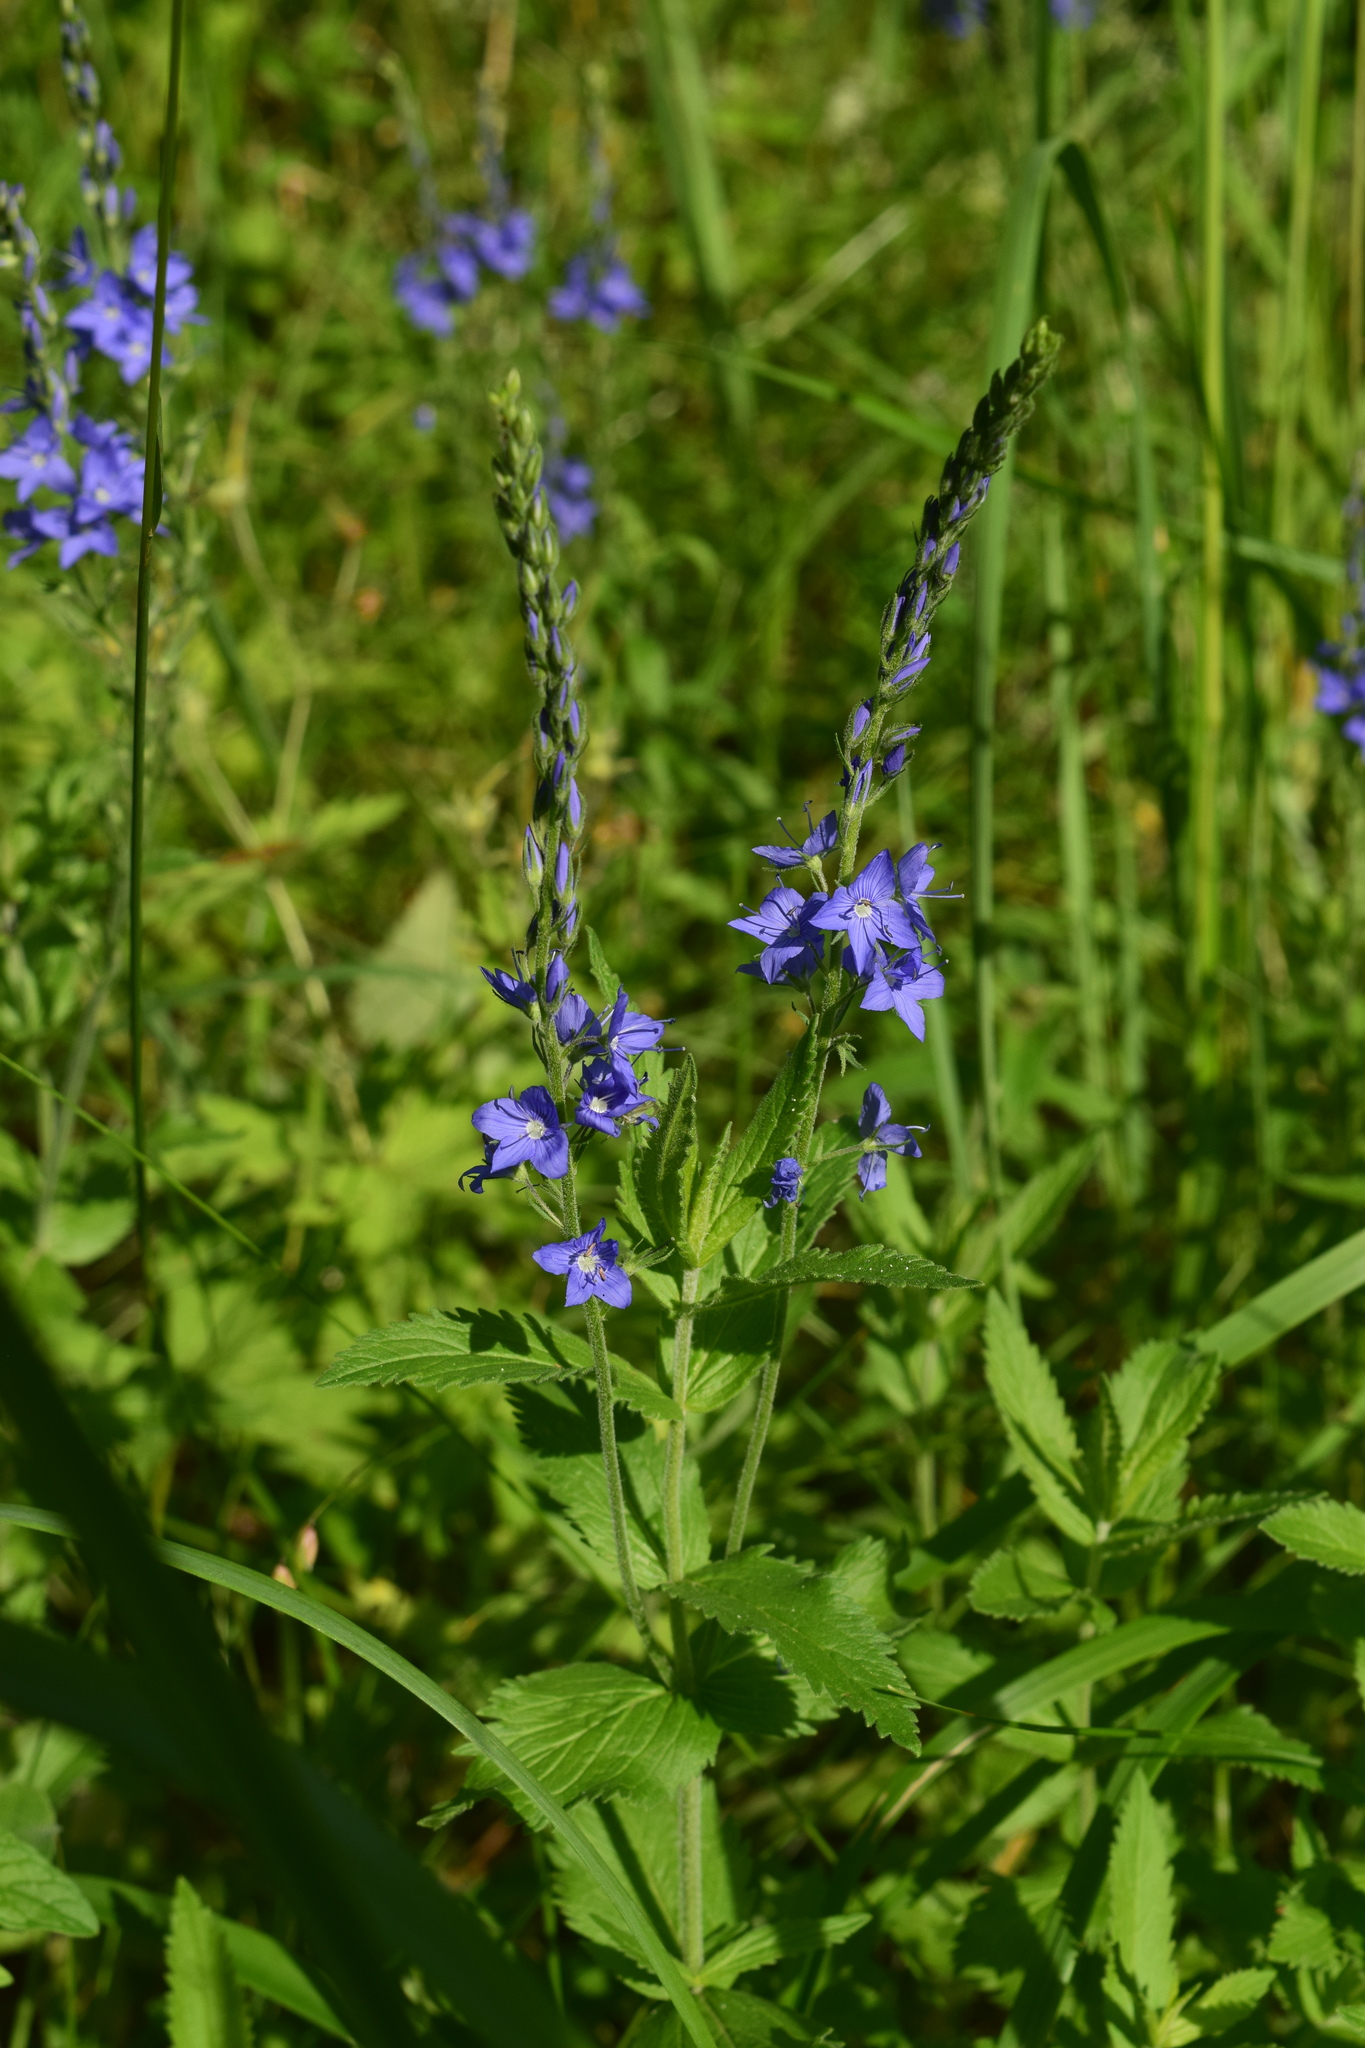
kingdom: Plantae
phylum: Tracheophyta
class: Magnoliopsida
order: Lamiales
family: Plantaginaceae
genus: Veronica
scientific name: Veronica teucrium
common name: Large speedwell
